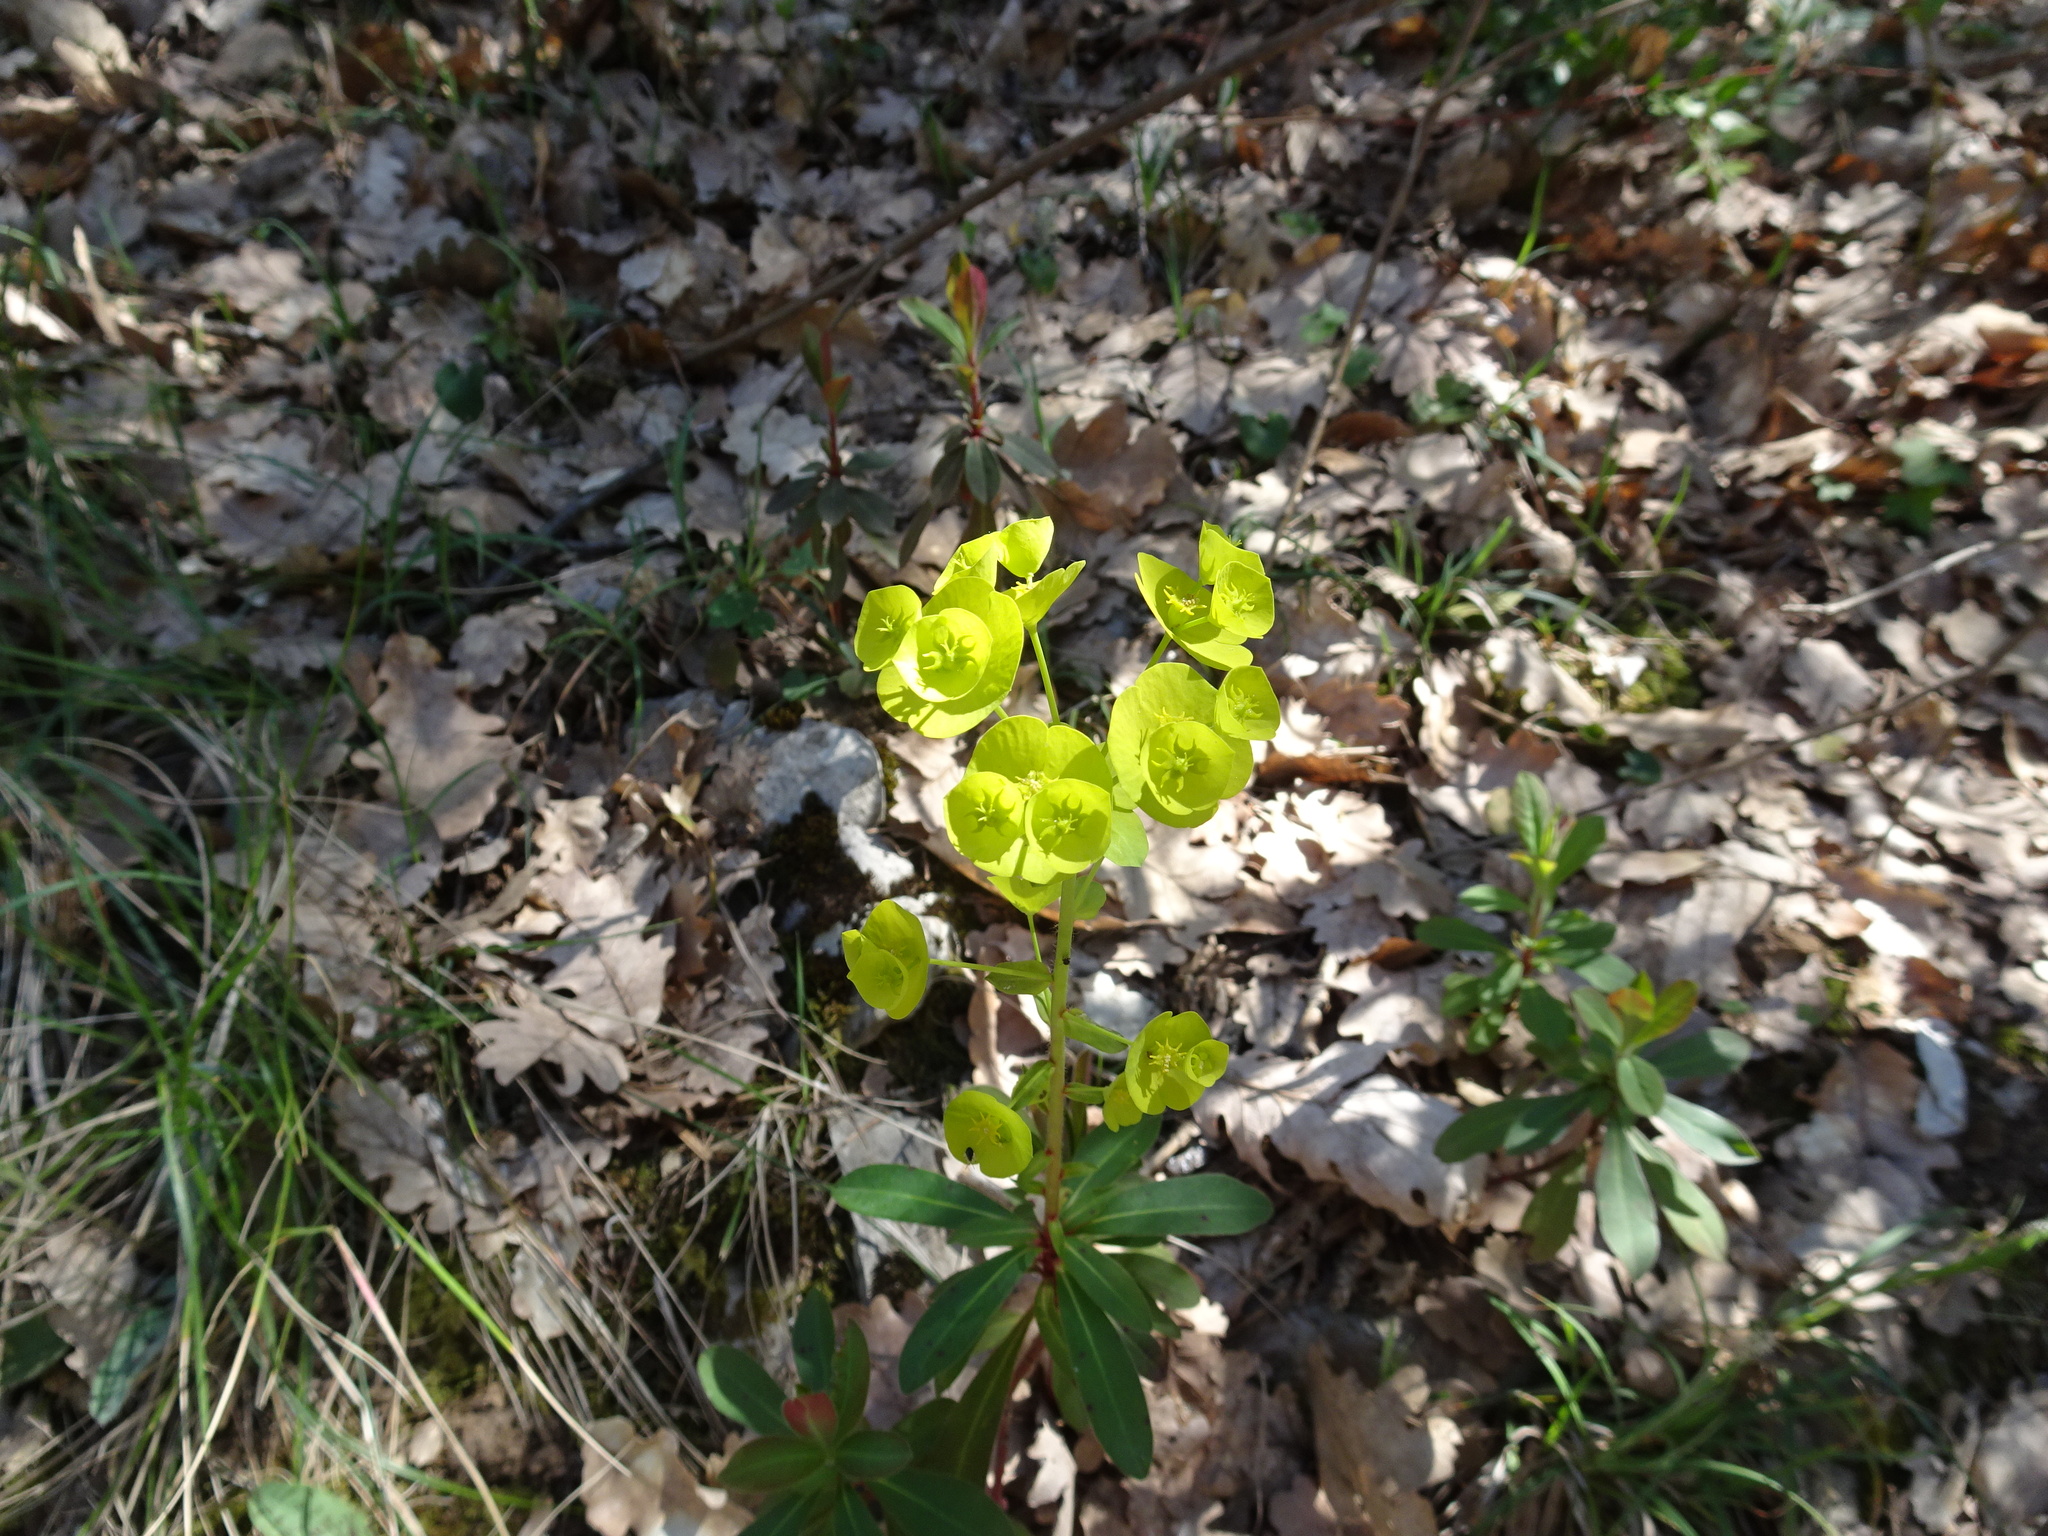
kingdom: Plantae
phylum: Tracheophyta
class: Magnoliopsida
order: Malpighiales
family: Euphorbiaceae
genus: Euphorbia
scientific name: Euphorbia amygdaloides
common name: Wood spurge
